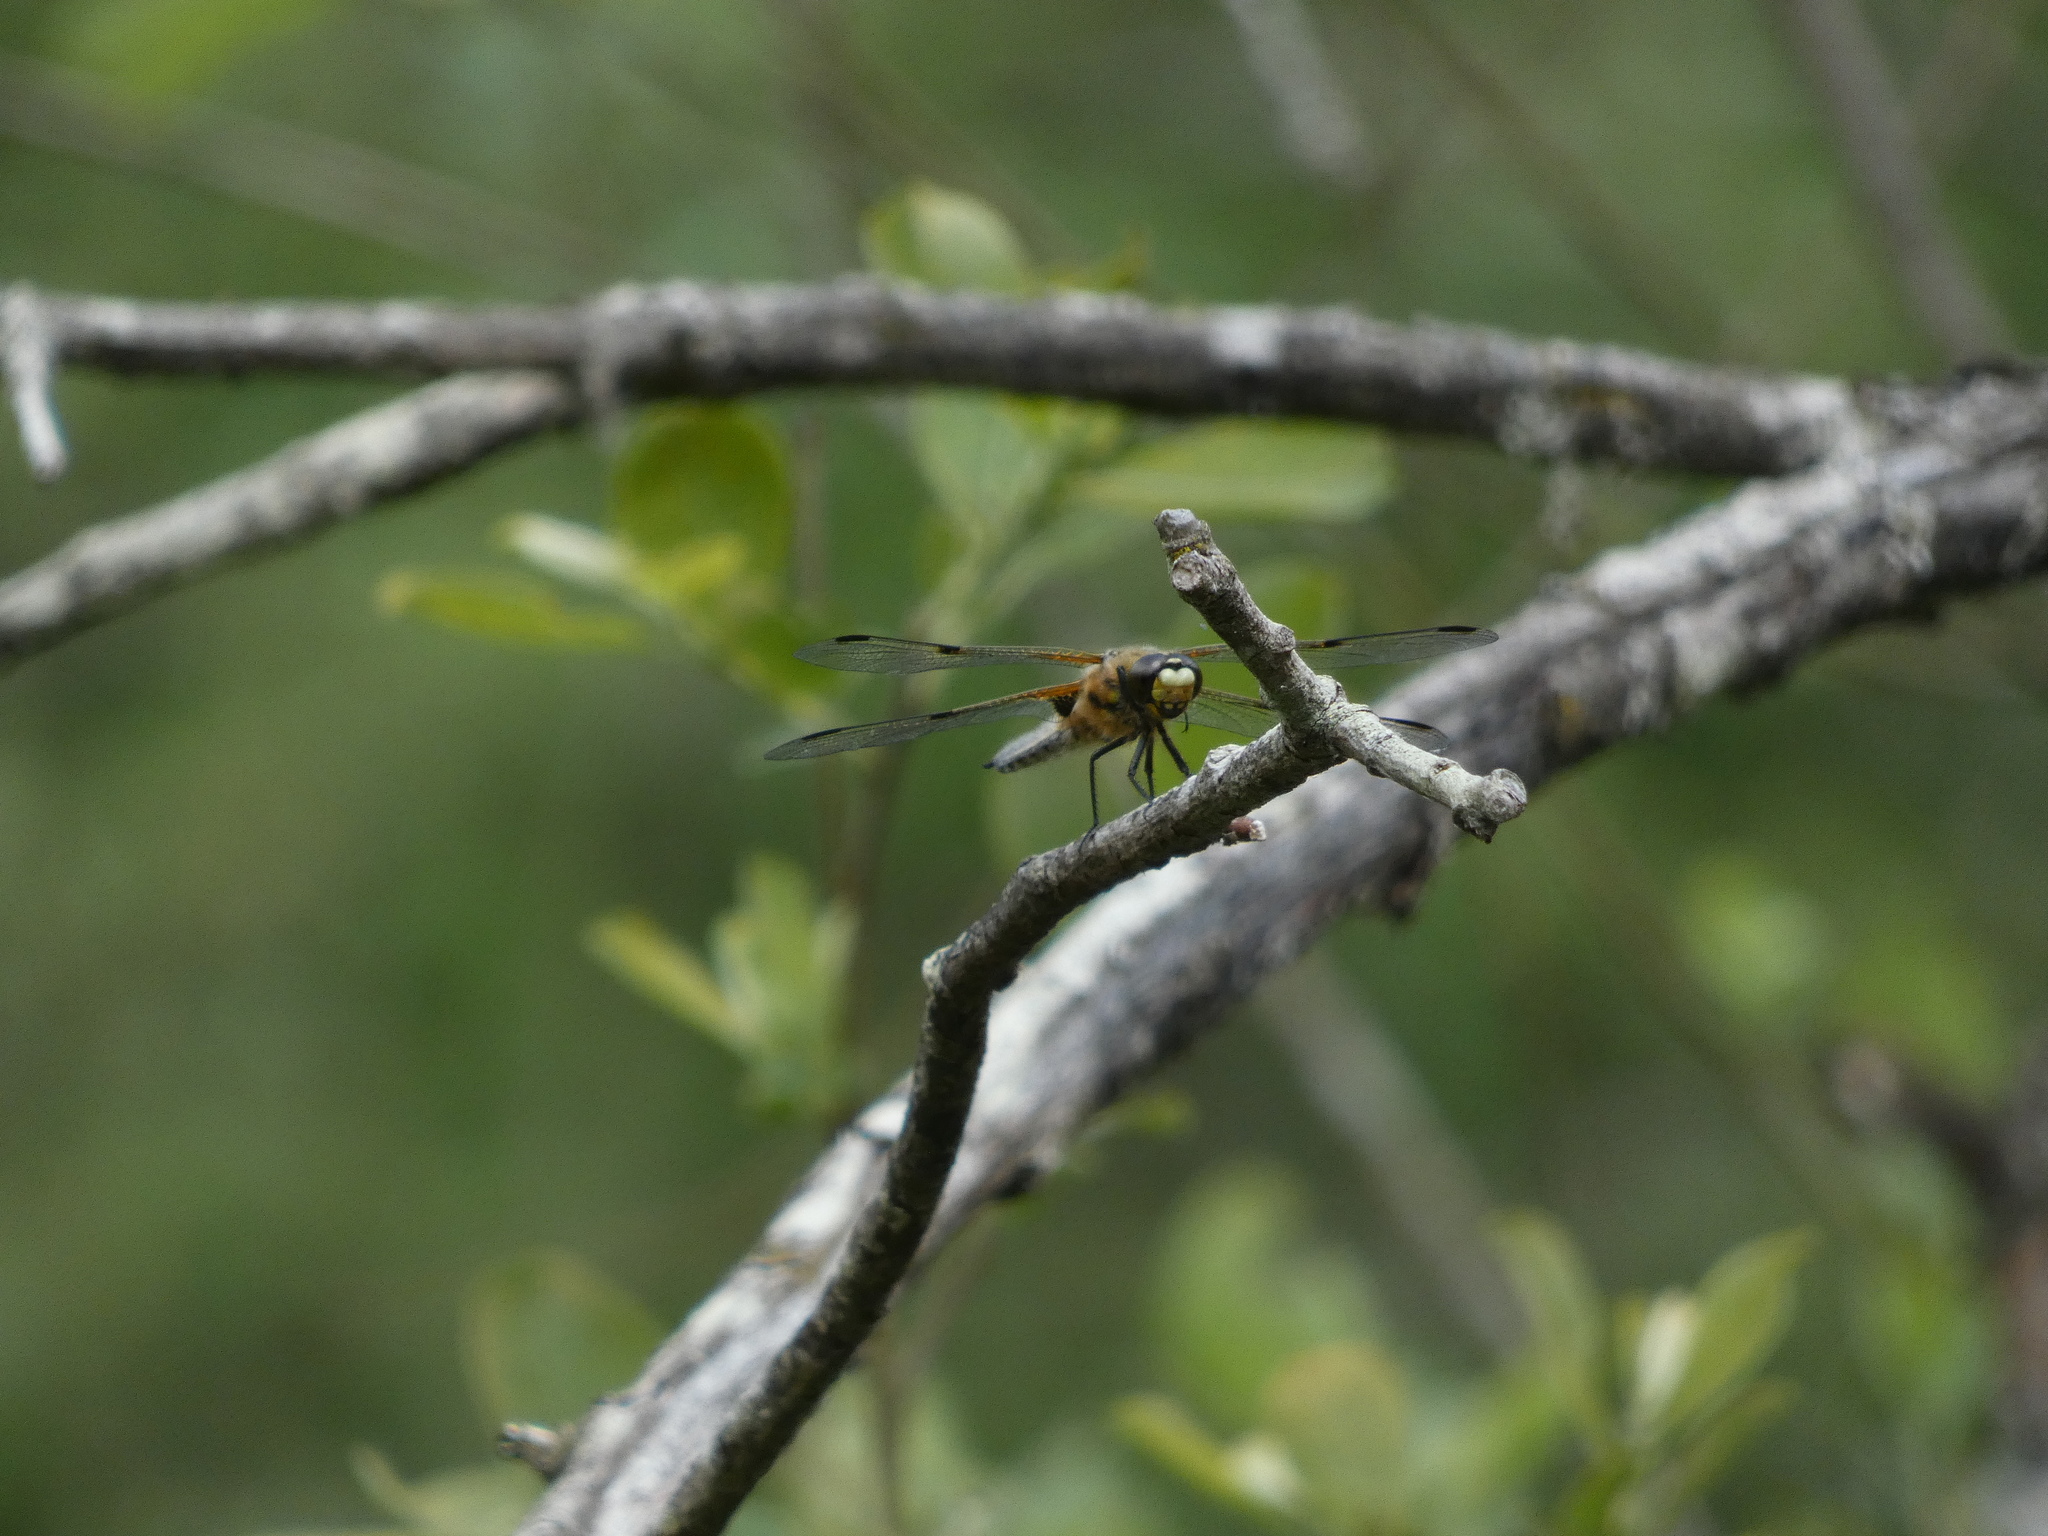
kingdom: Animalia
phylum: Arthropoda
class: Insecta
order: Odonata
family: Libellulidae
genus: Libellula
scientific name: Libellula quadrimaculata
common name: Four-spotted chaser
